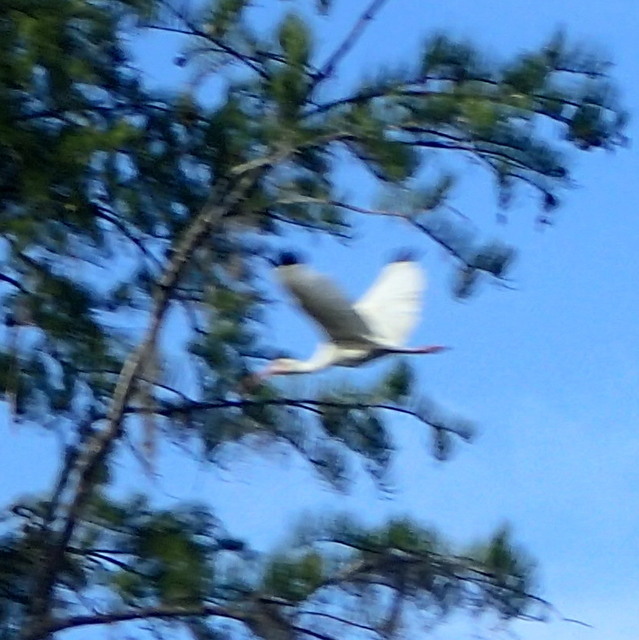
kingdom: Animalia
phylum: Chordata
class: Aves
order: Pelecaniformes
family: Threskiornithidae
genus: Eudocimus
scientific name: Eudocimus albus
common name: White ibis
